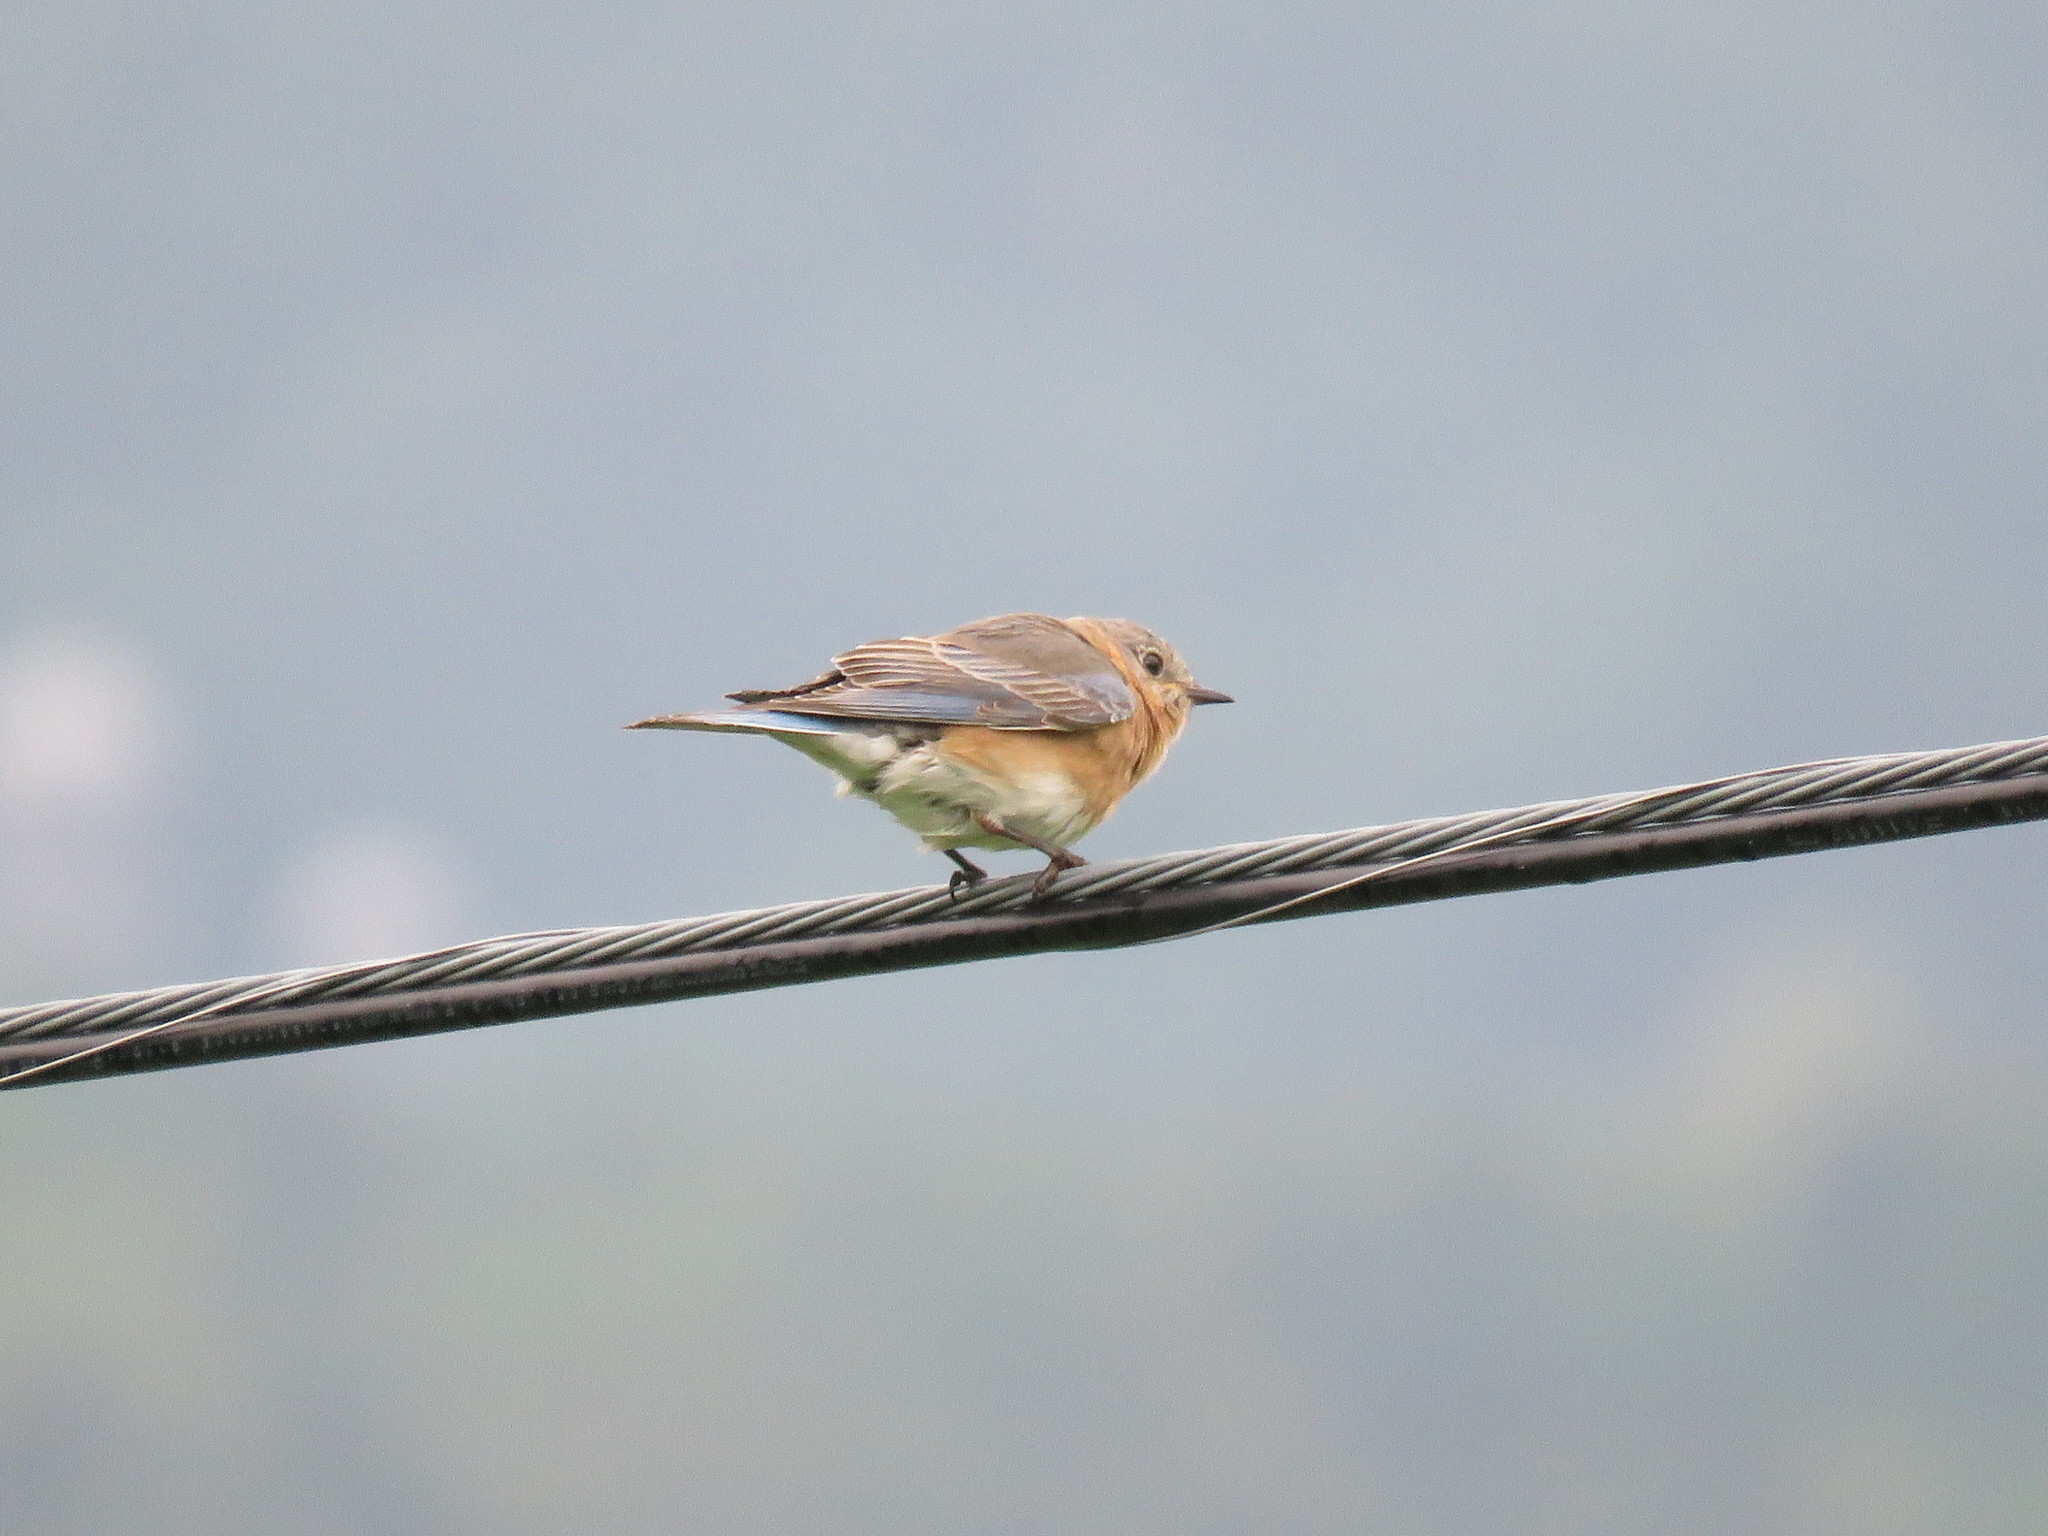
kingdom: Animalia
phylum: Chordata
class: Aves
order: Passeriformes
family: Turdidae
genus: Sialia
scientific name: Sialia sialis
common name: Eastern bluebird
